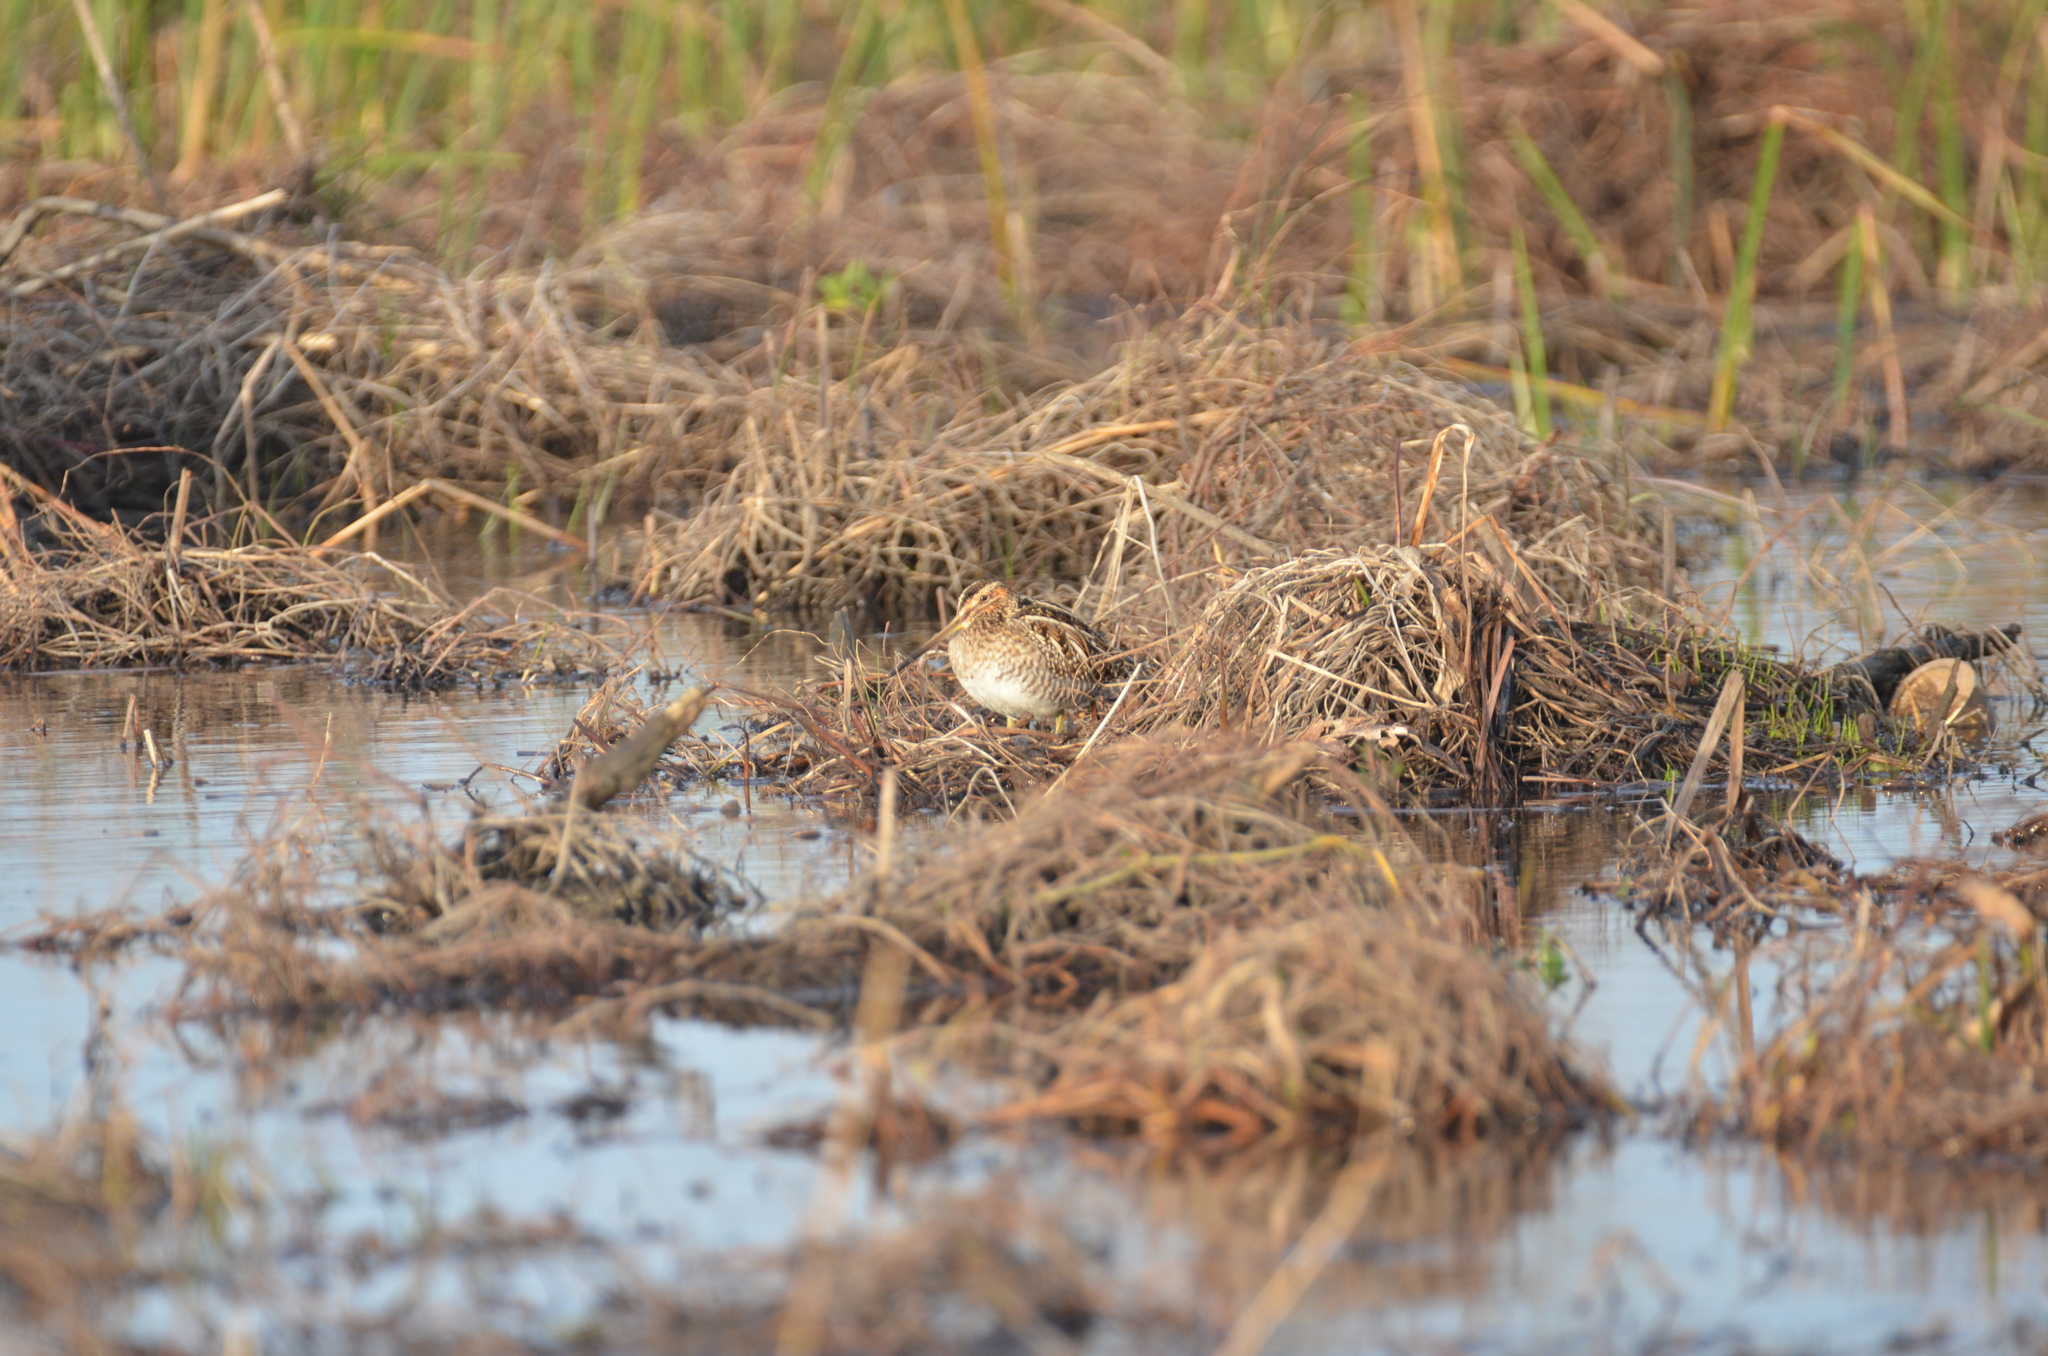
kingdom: Animalia
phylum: Chordata
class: Aves
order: Charadriiformes
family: Scolopacidae
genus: Gallinago
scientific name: Gallinago delicata
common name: Wilson's snipe
